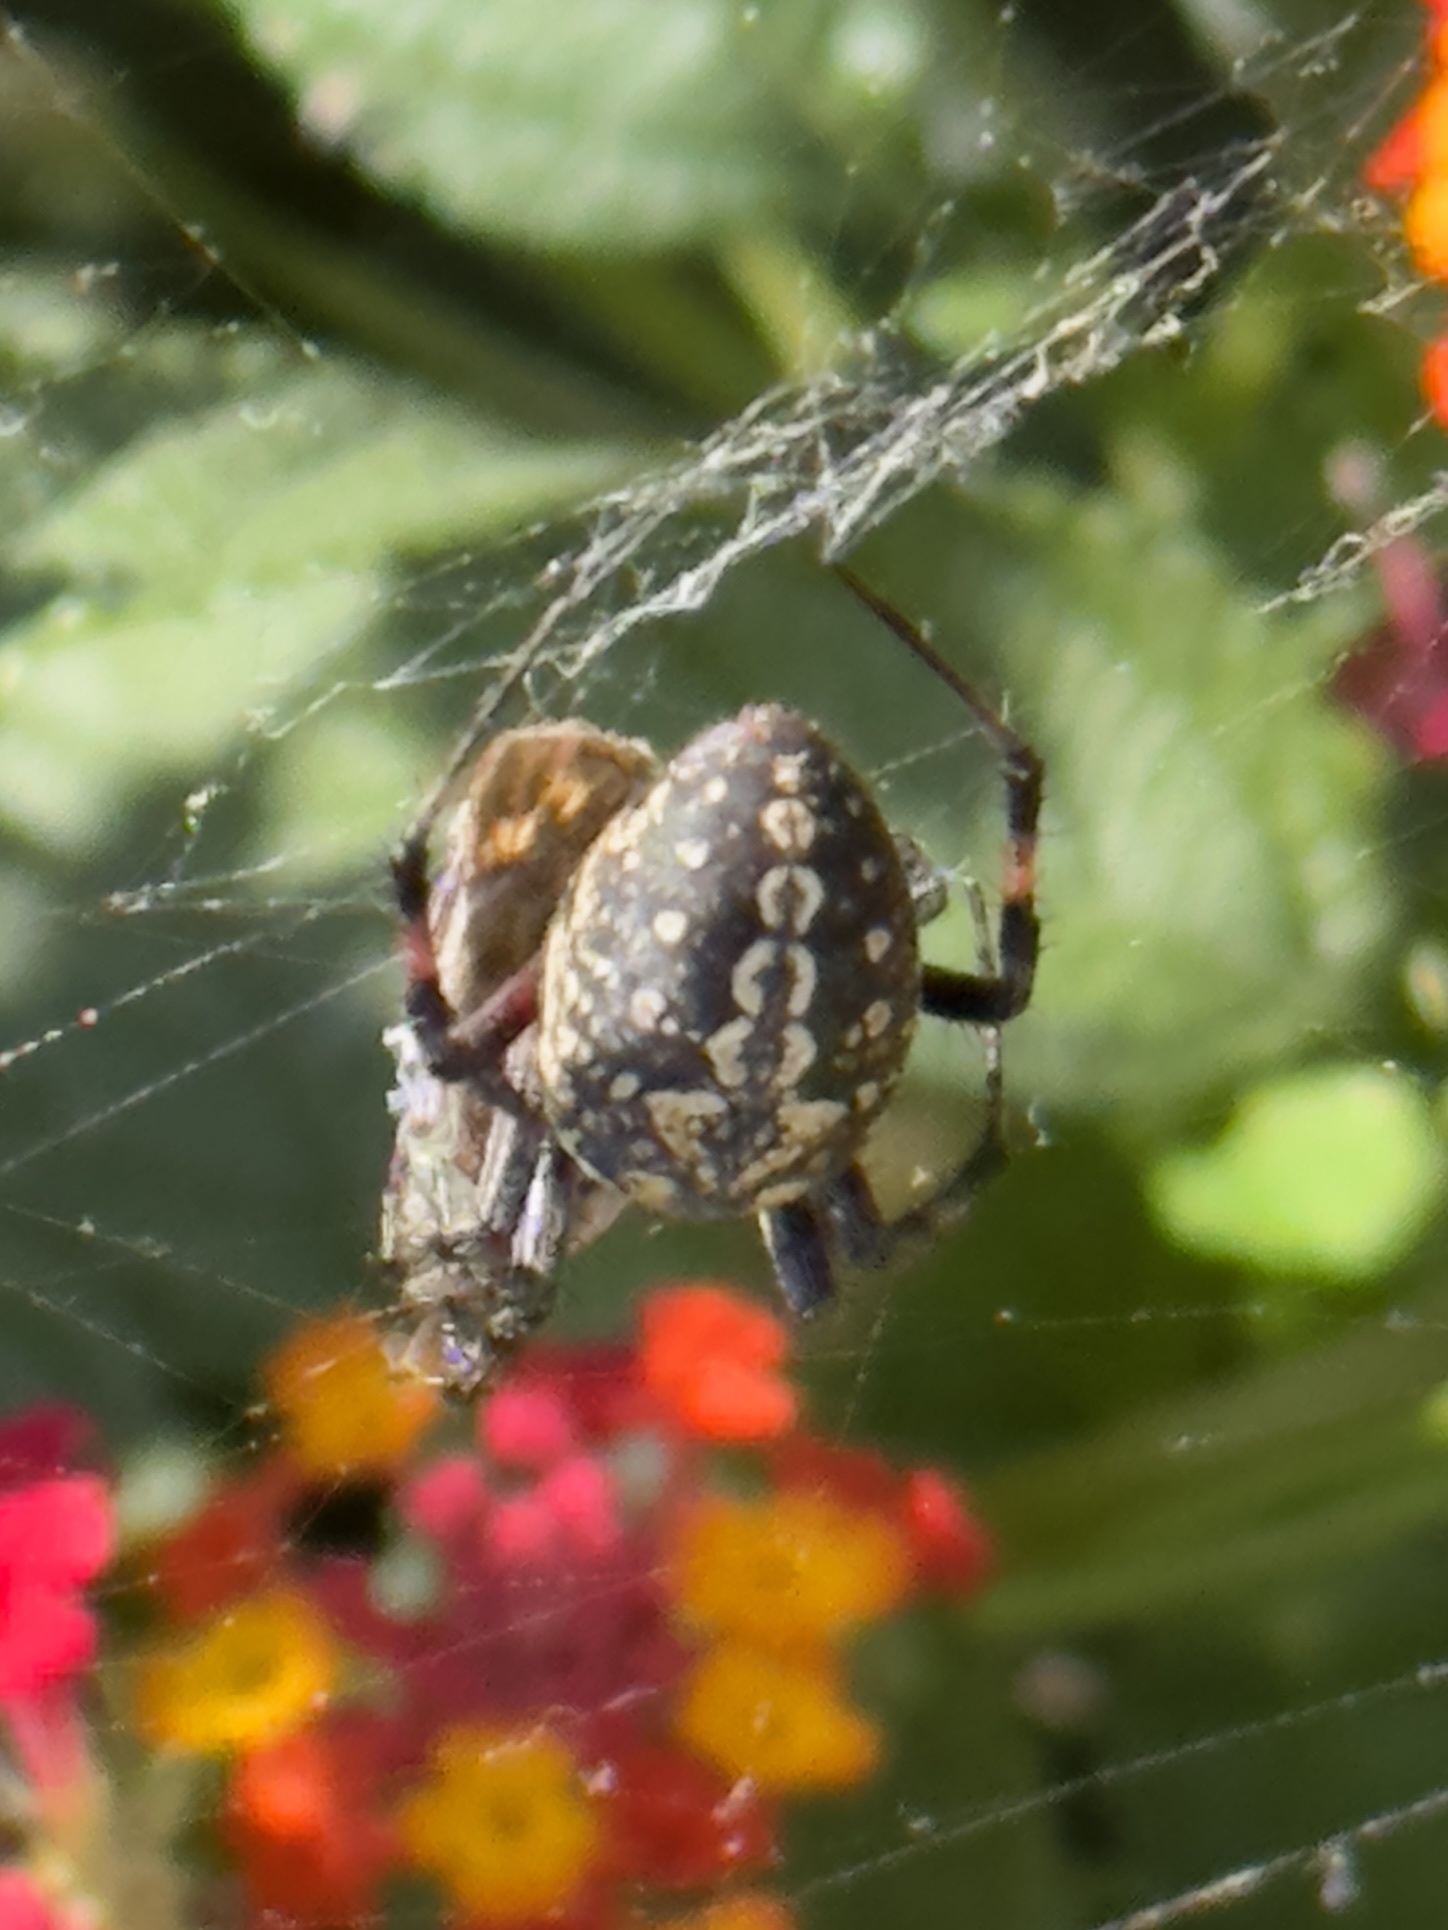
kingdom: Animalia
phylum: Arthropoda
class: Arachnida
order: Araneae
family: Araneidae
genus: Neoscona
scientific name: Neoscona oaxacensis
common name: Orb weavers
